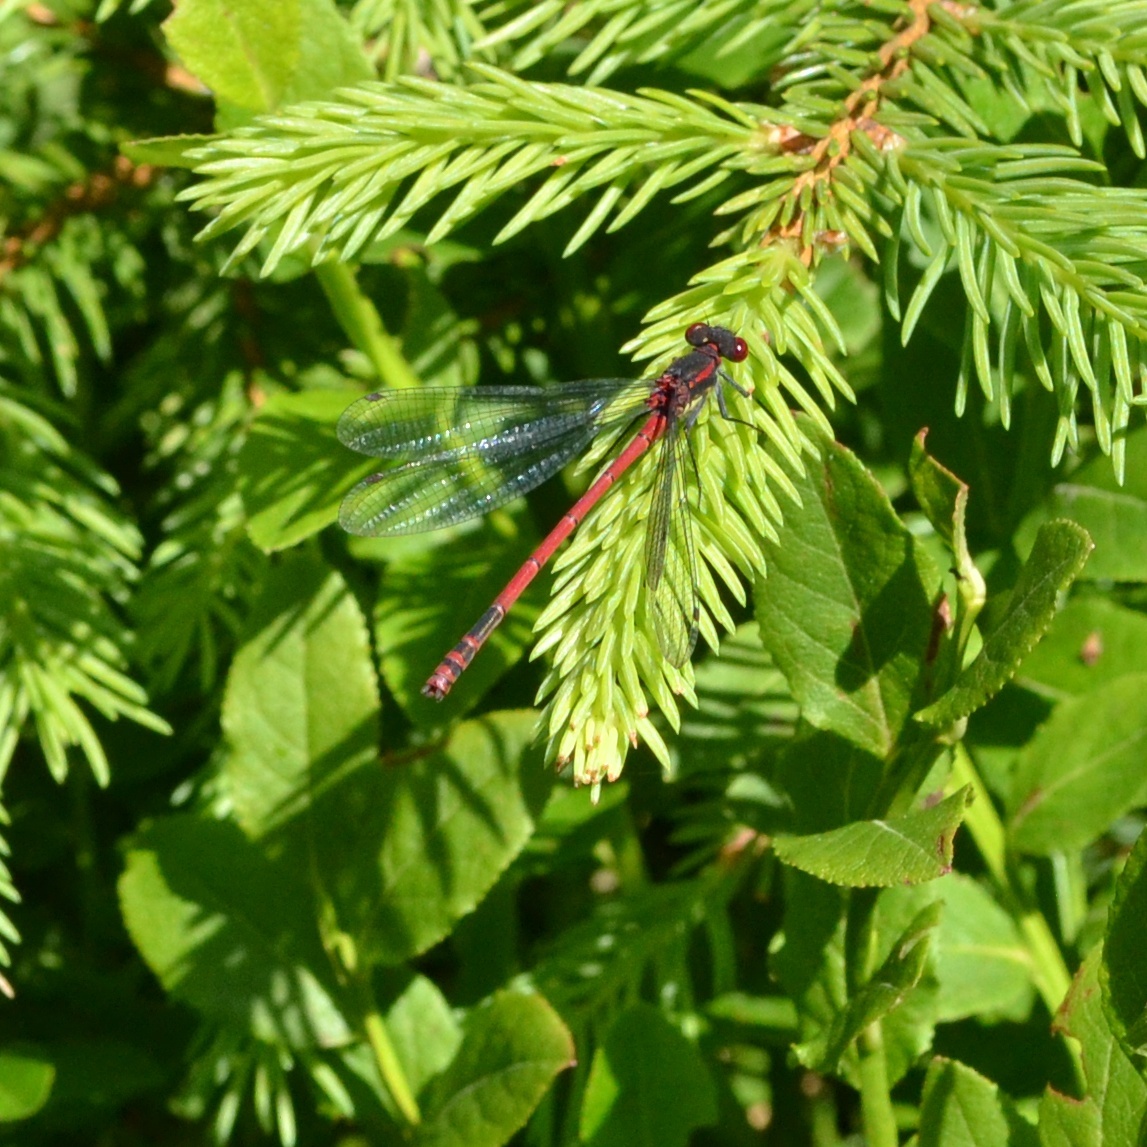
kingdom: Animalia
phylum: Arthropoda
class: Insecta
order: Odonata
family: Coenagrionidae
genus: Pyrrhosoma
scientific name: Pyrrhosoma nymphula
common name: Large red damsel
